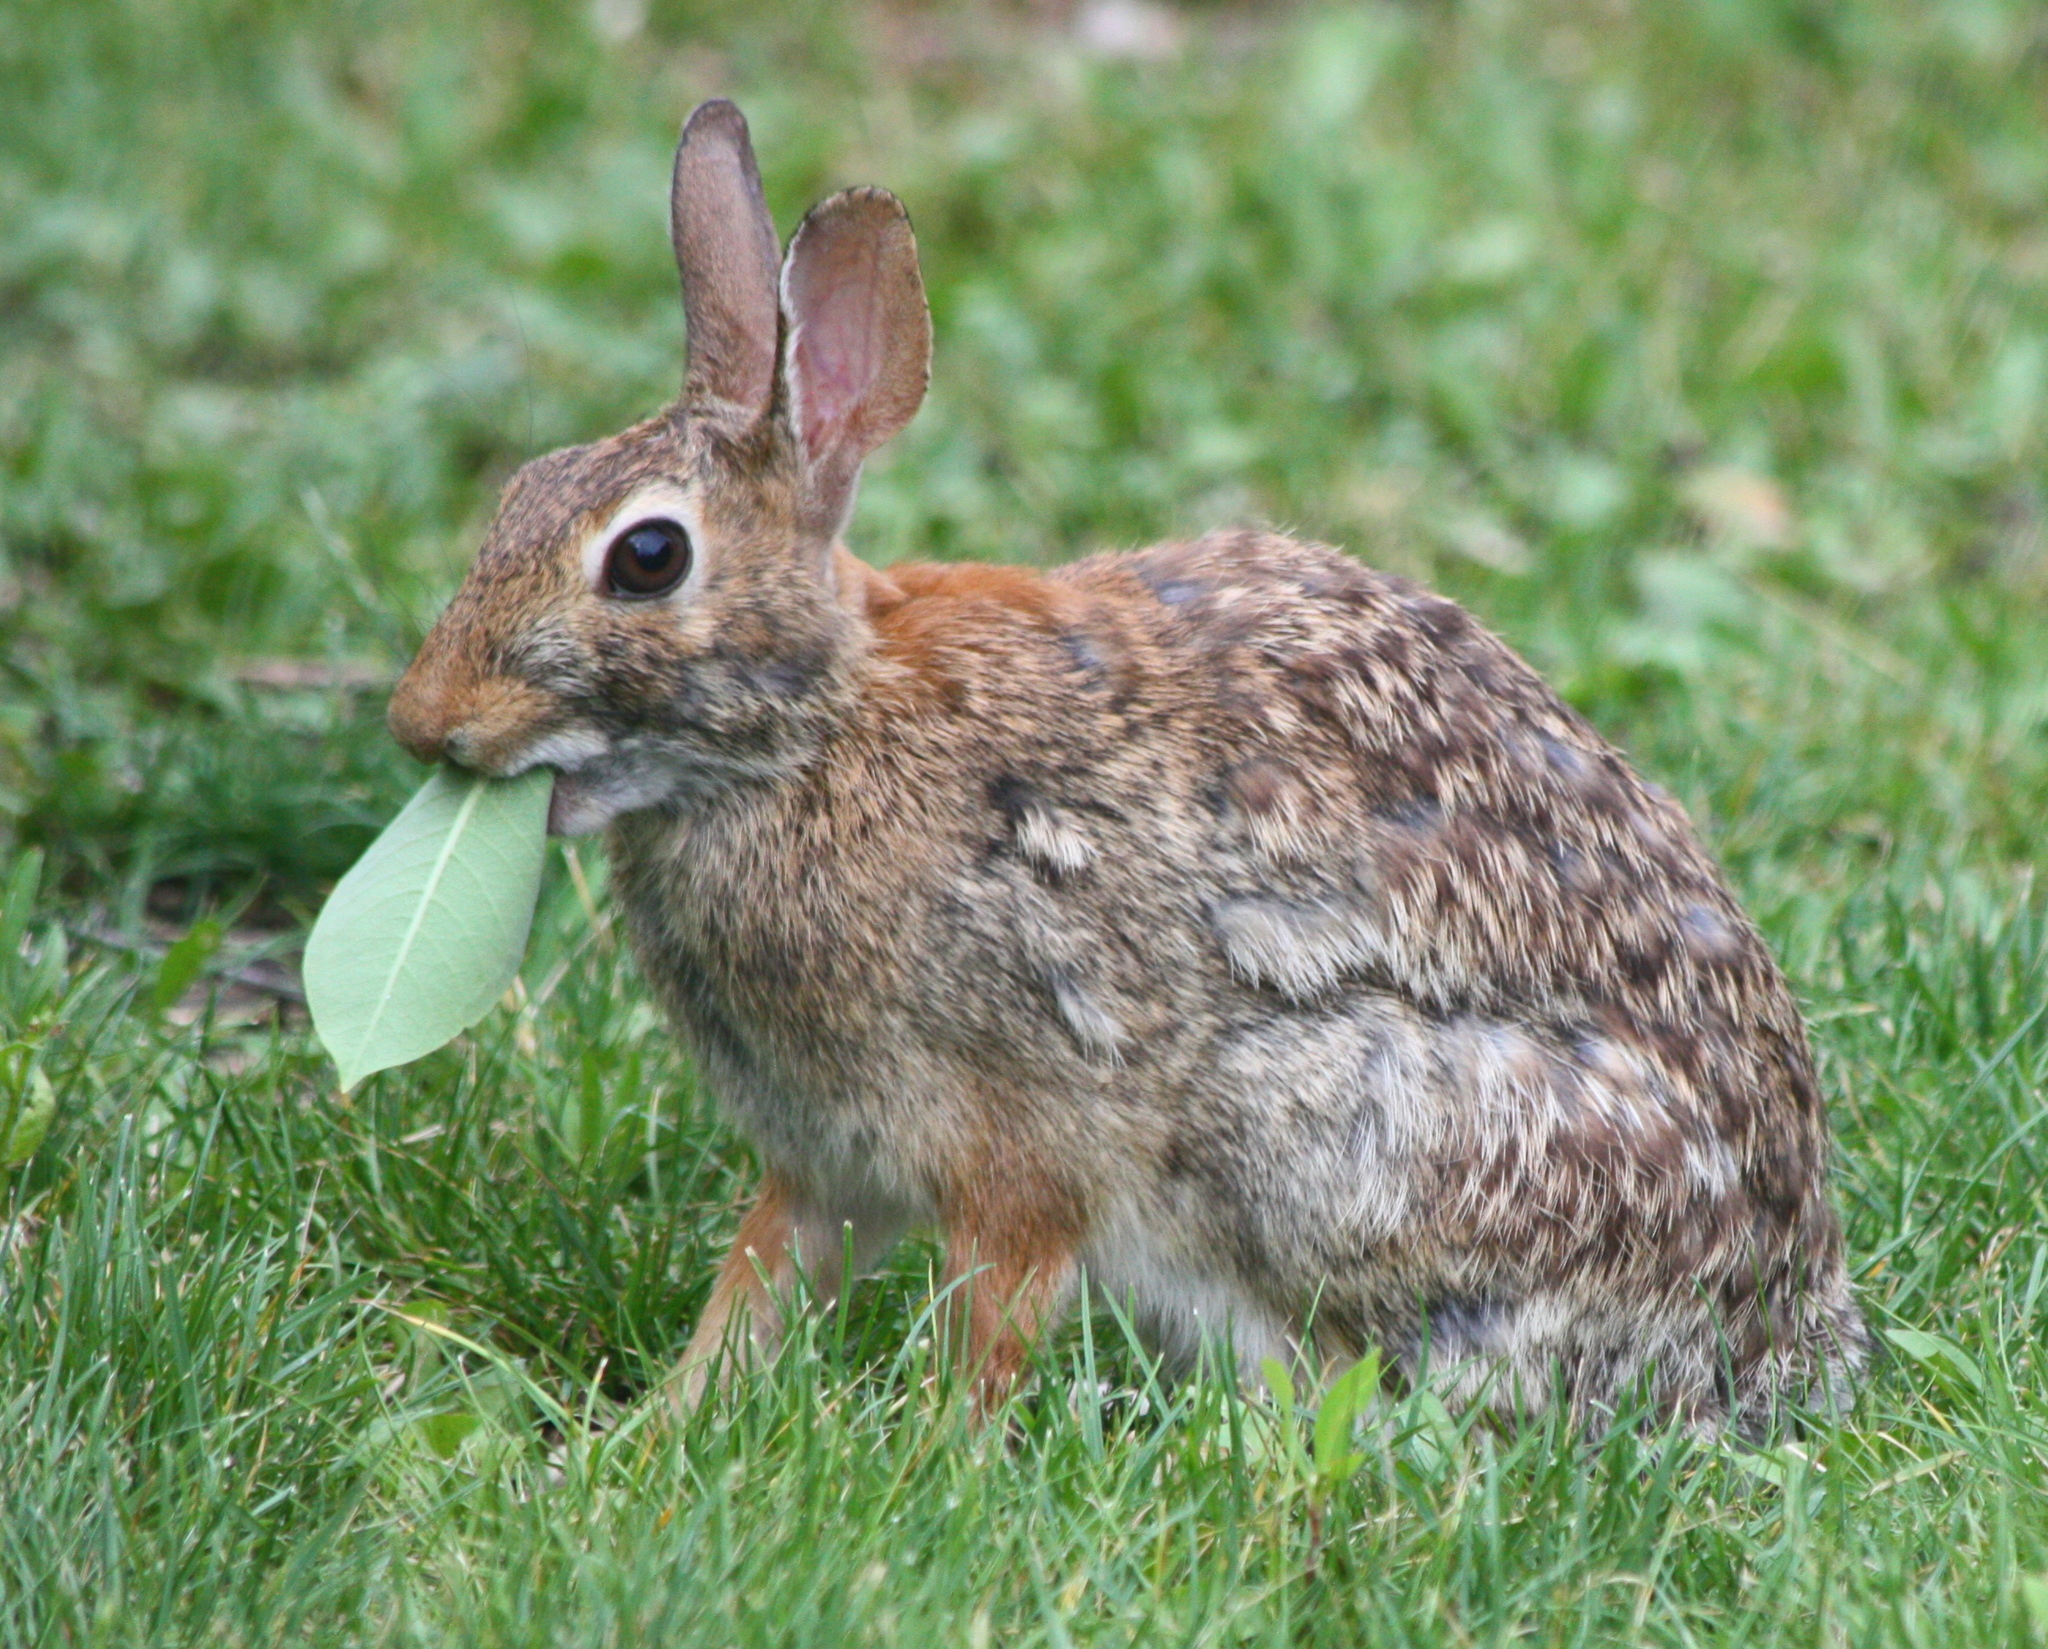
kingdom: Animalia
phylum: Chordata
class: Mammalia
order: Lagomorpha
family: Leporidae
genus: Sylvilagus
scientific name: Sylvilagus floridanus
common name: Eastern cottontail
